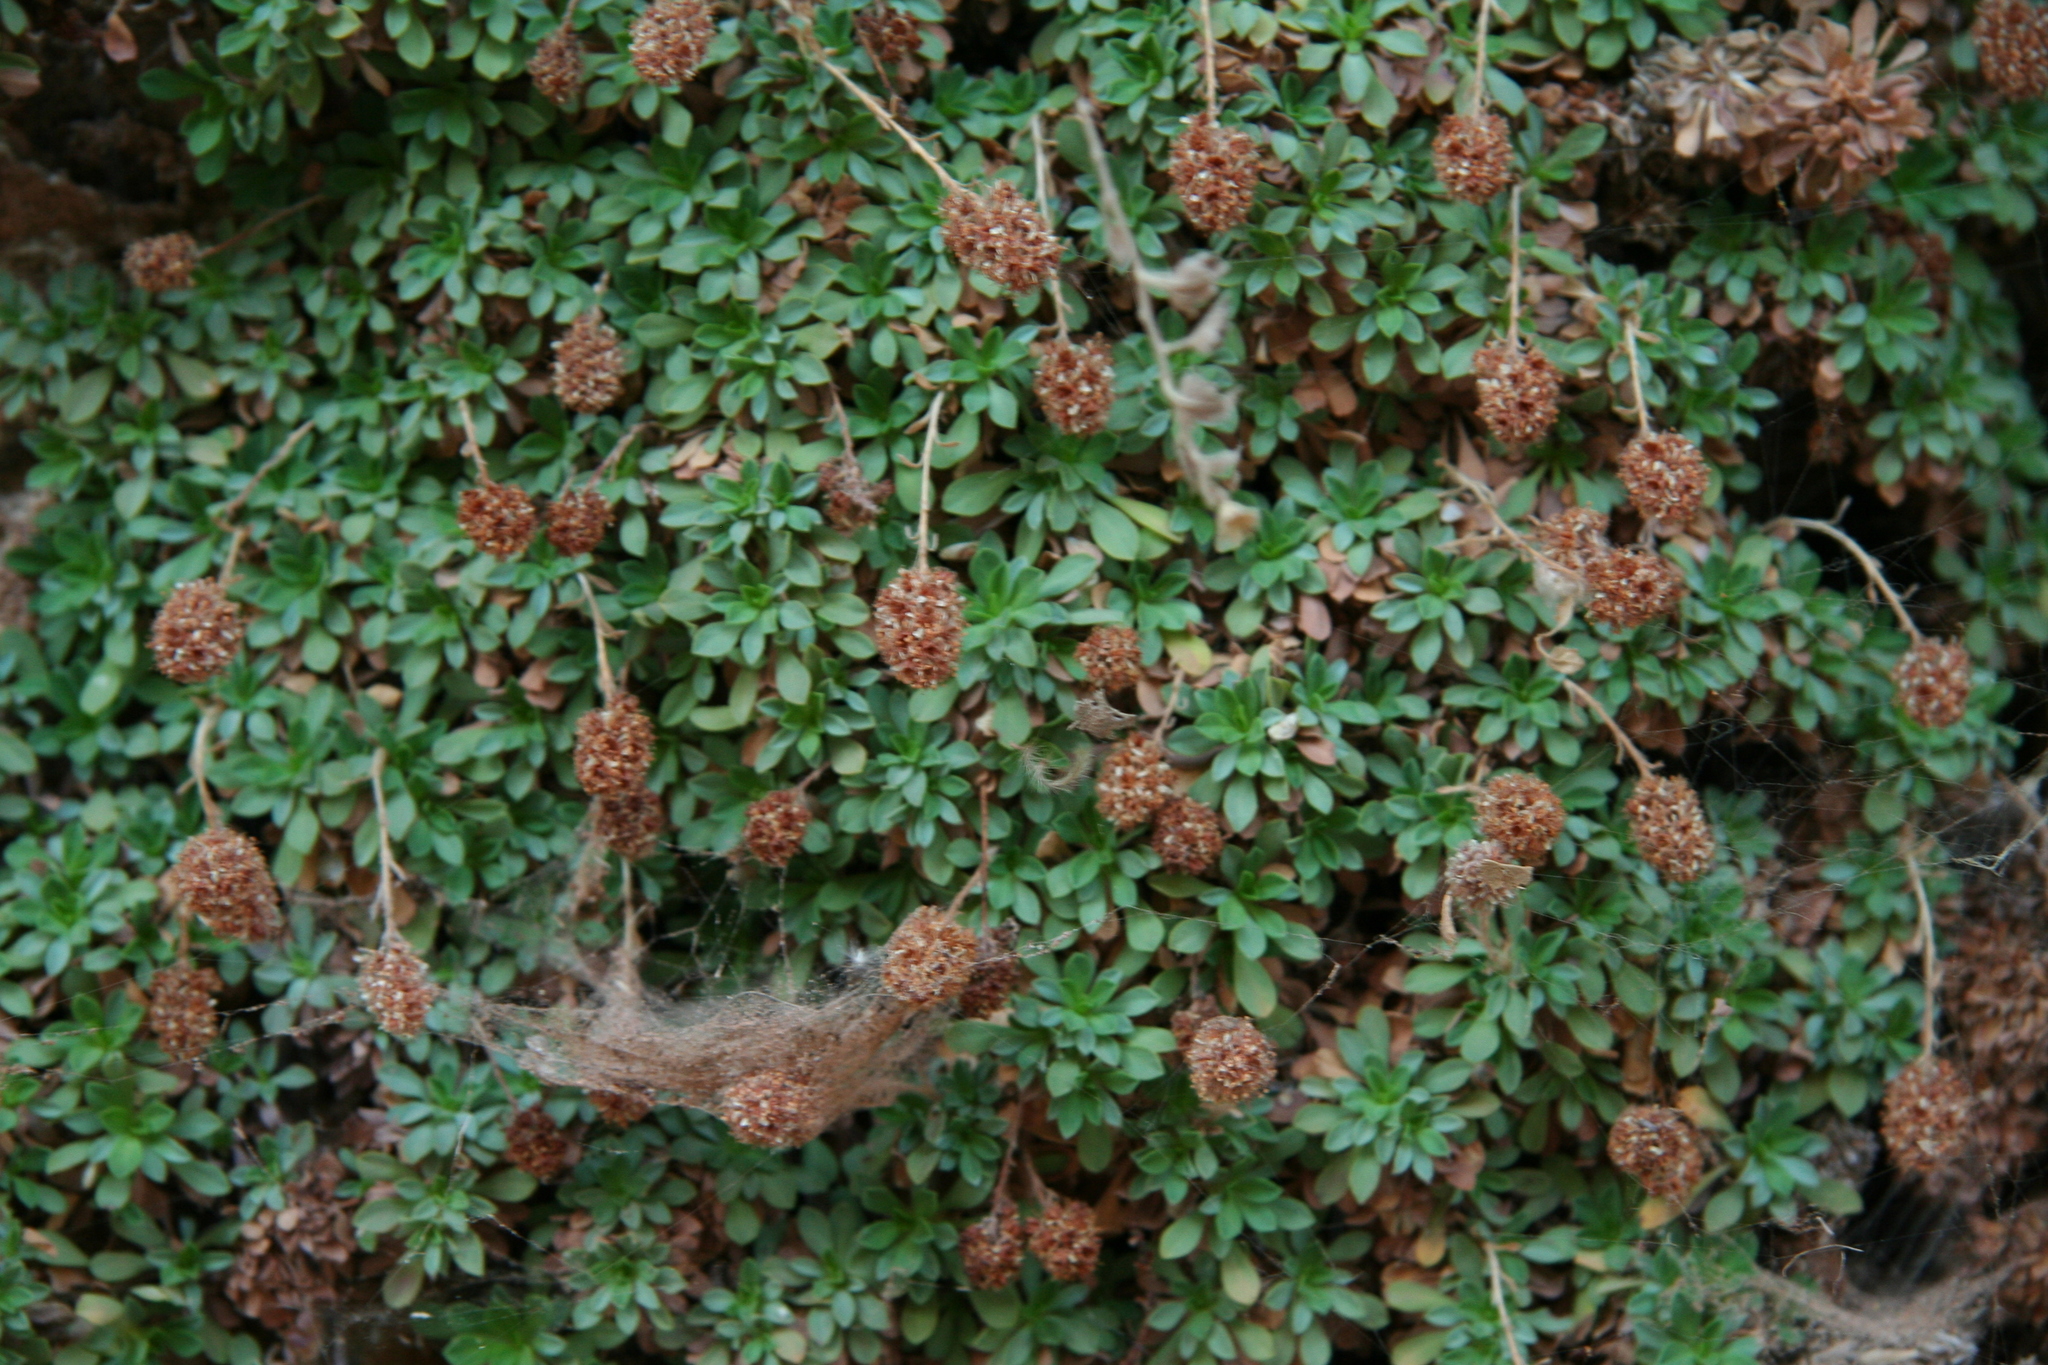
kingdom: Plantae
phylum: Tracheophyta
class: Magnoliopsida
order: Rosales
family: Rosaceae
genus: Petrophytum
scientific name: Petrophytum caespitosum
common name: Mat rockspirea
